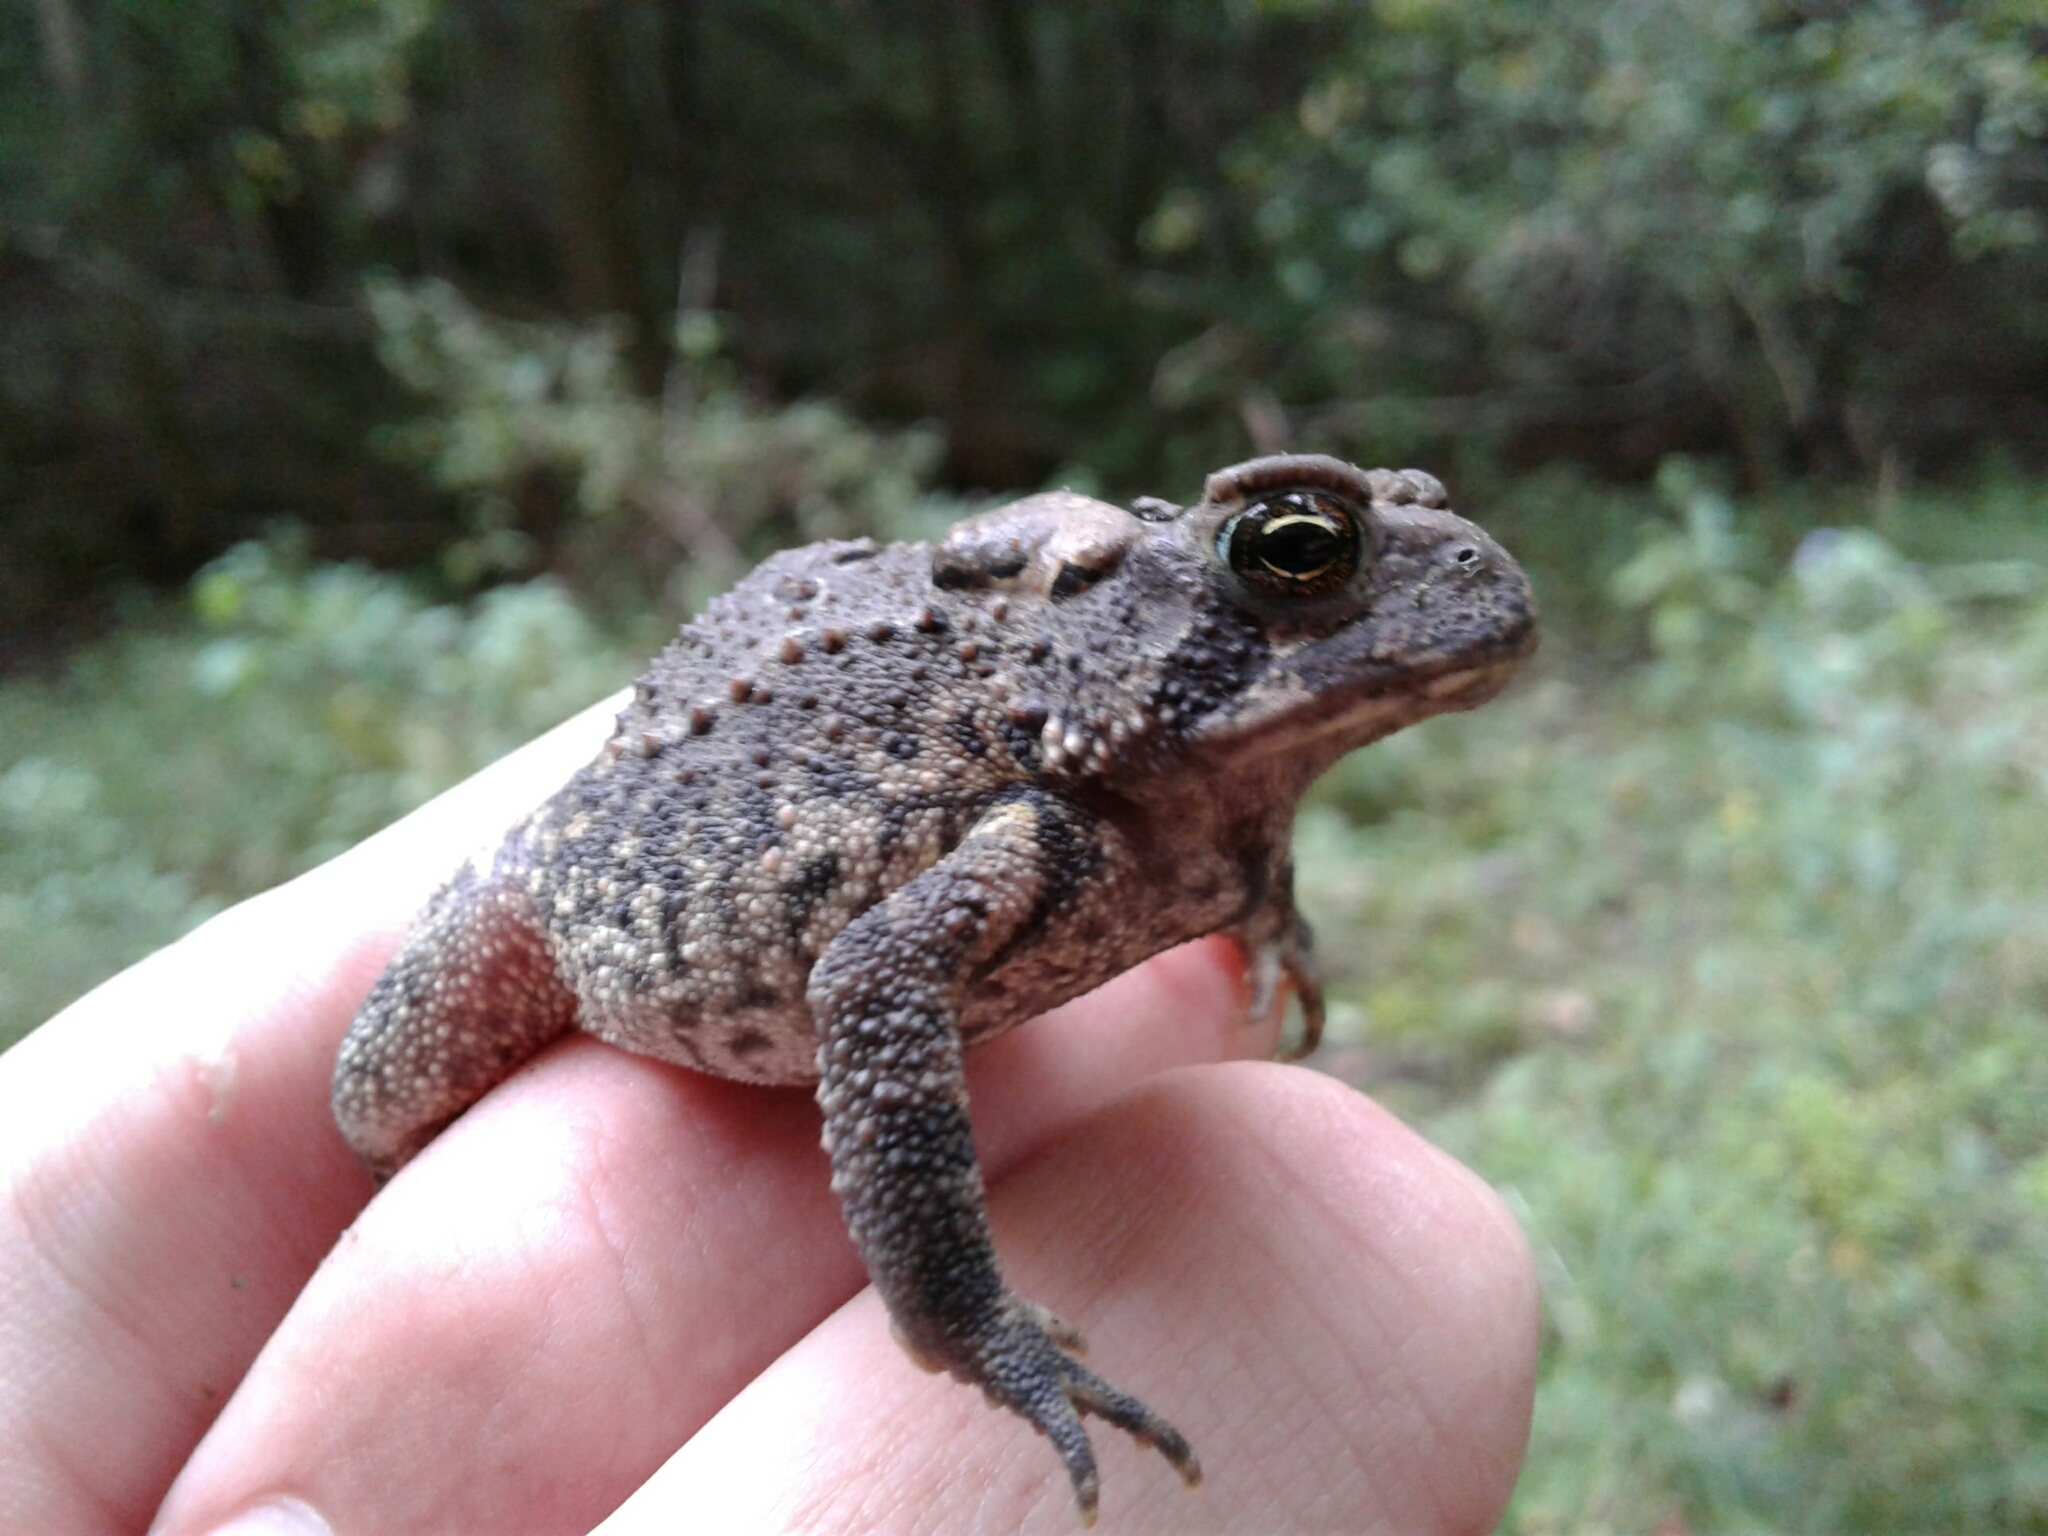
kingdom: Animalia
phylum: Chordata
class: Amphibia
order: Anura
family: Bufonidae
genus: Anaxyrus
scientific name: Anaxyrus americanus
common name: American toad
